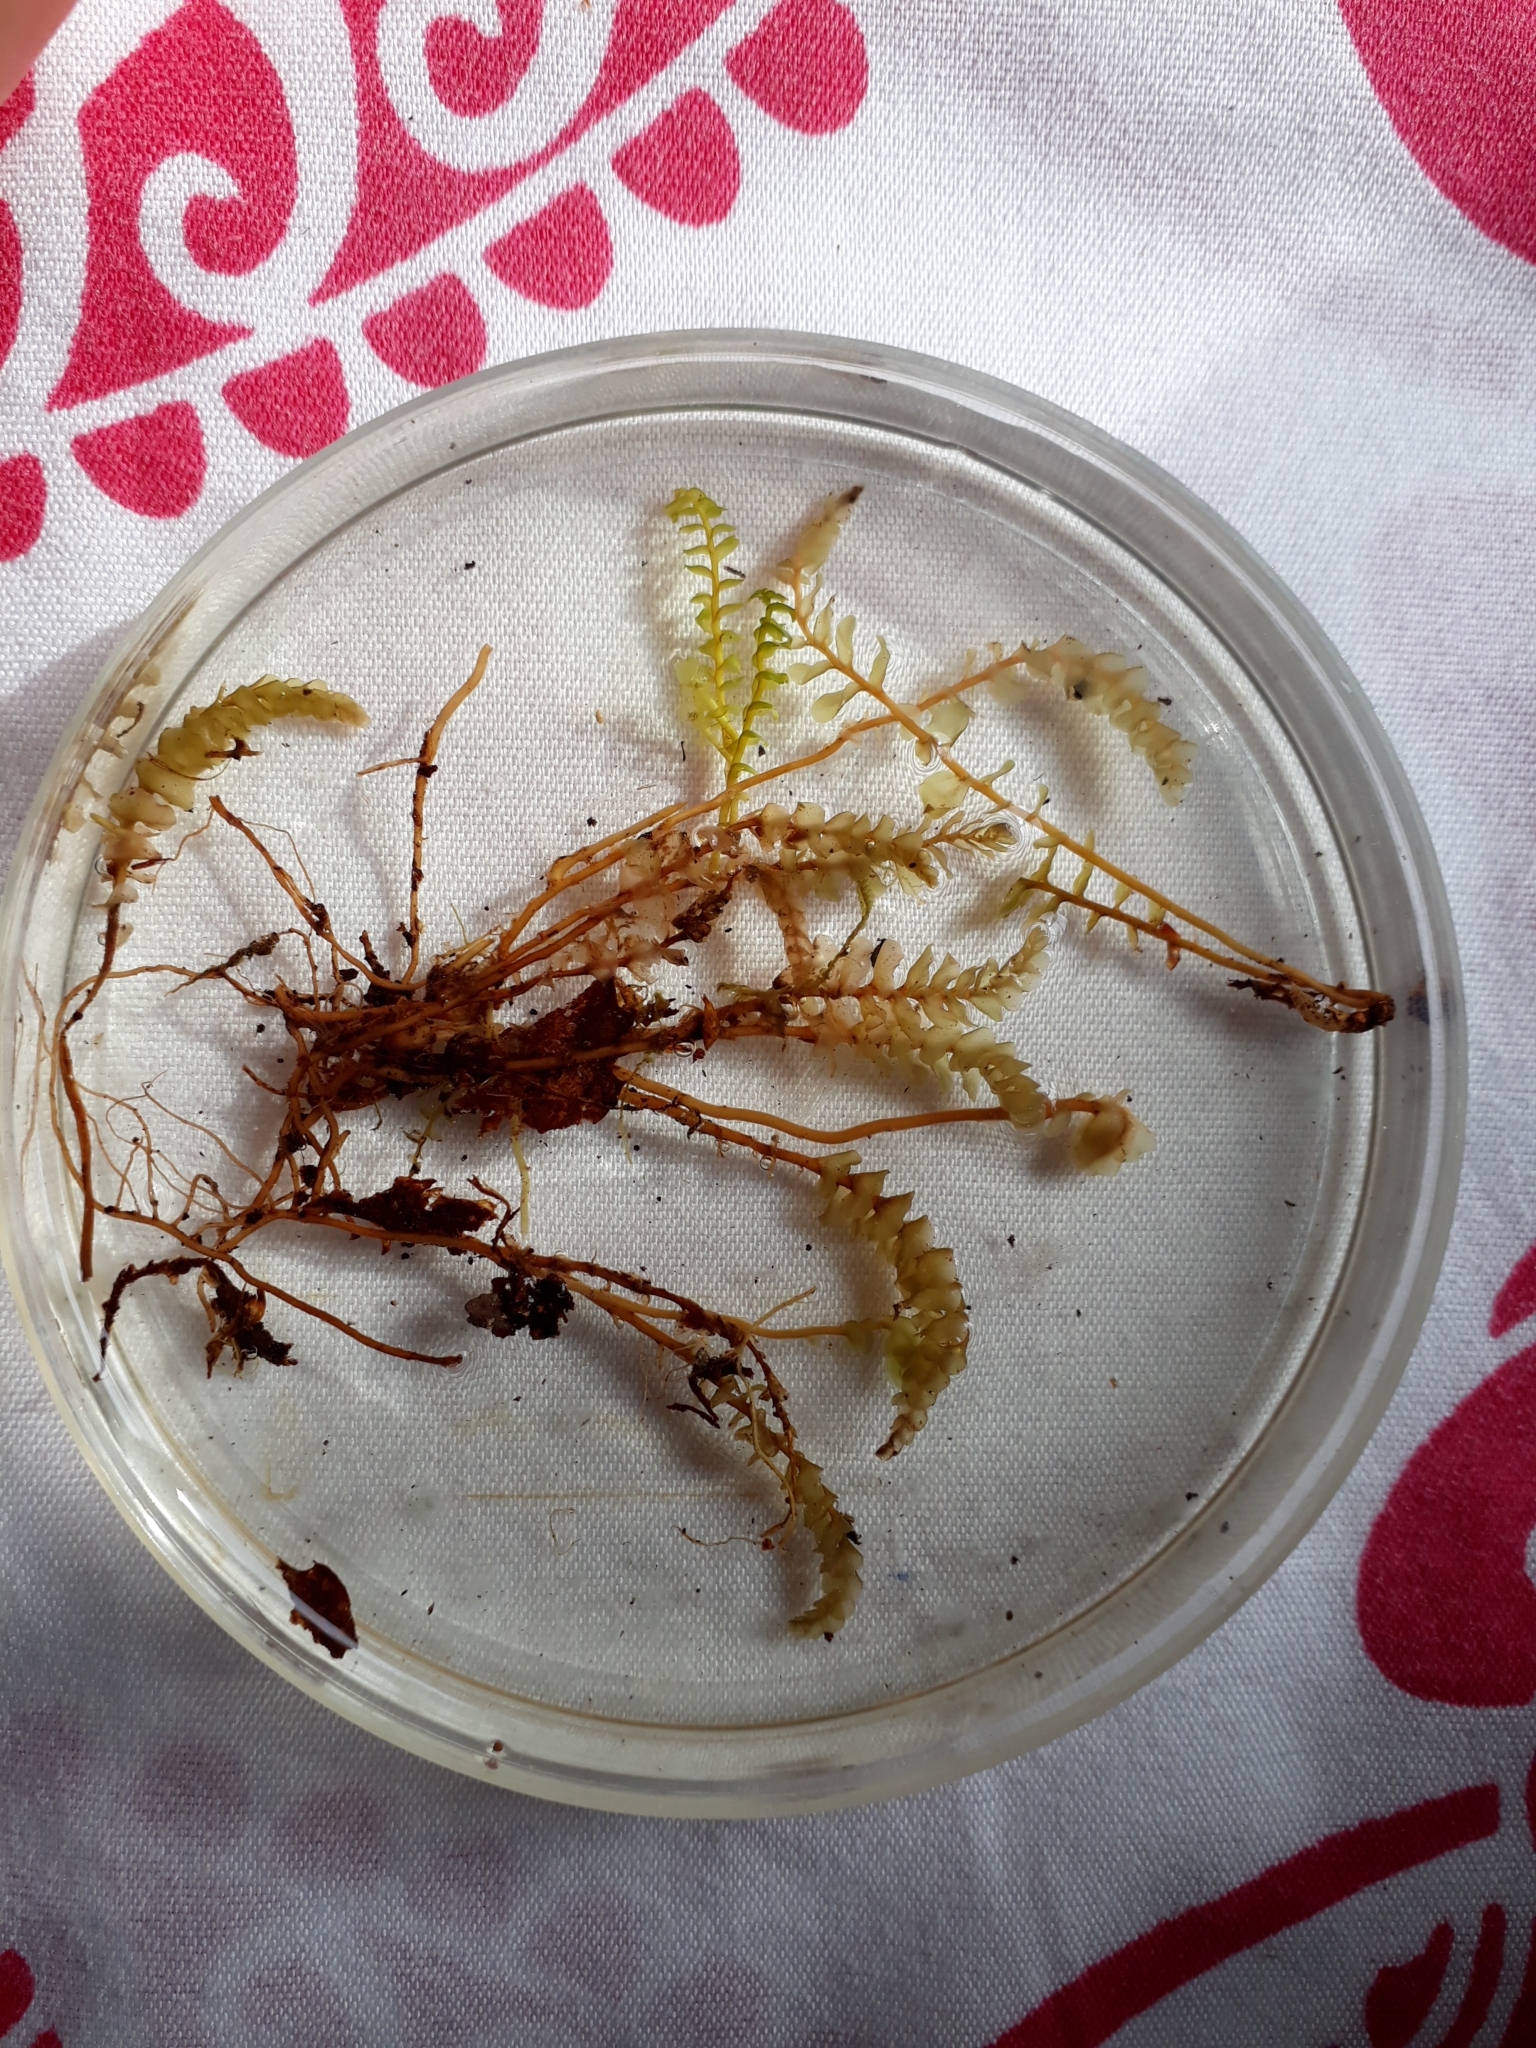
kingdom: Plantae
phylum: Marchantiophyta
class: Jungermanniopsida
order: Jungermanniales
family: Plagiochilaceae
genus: Plagiochila
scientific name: Plagiochila fuscella
